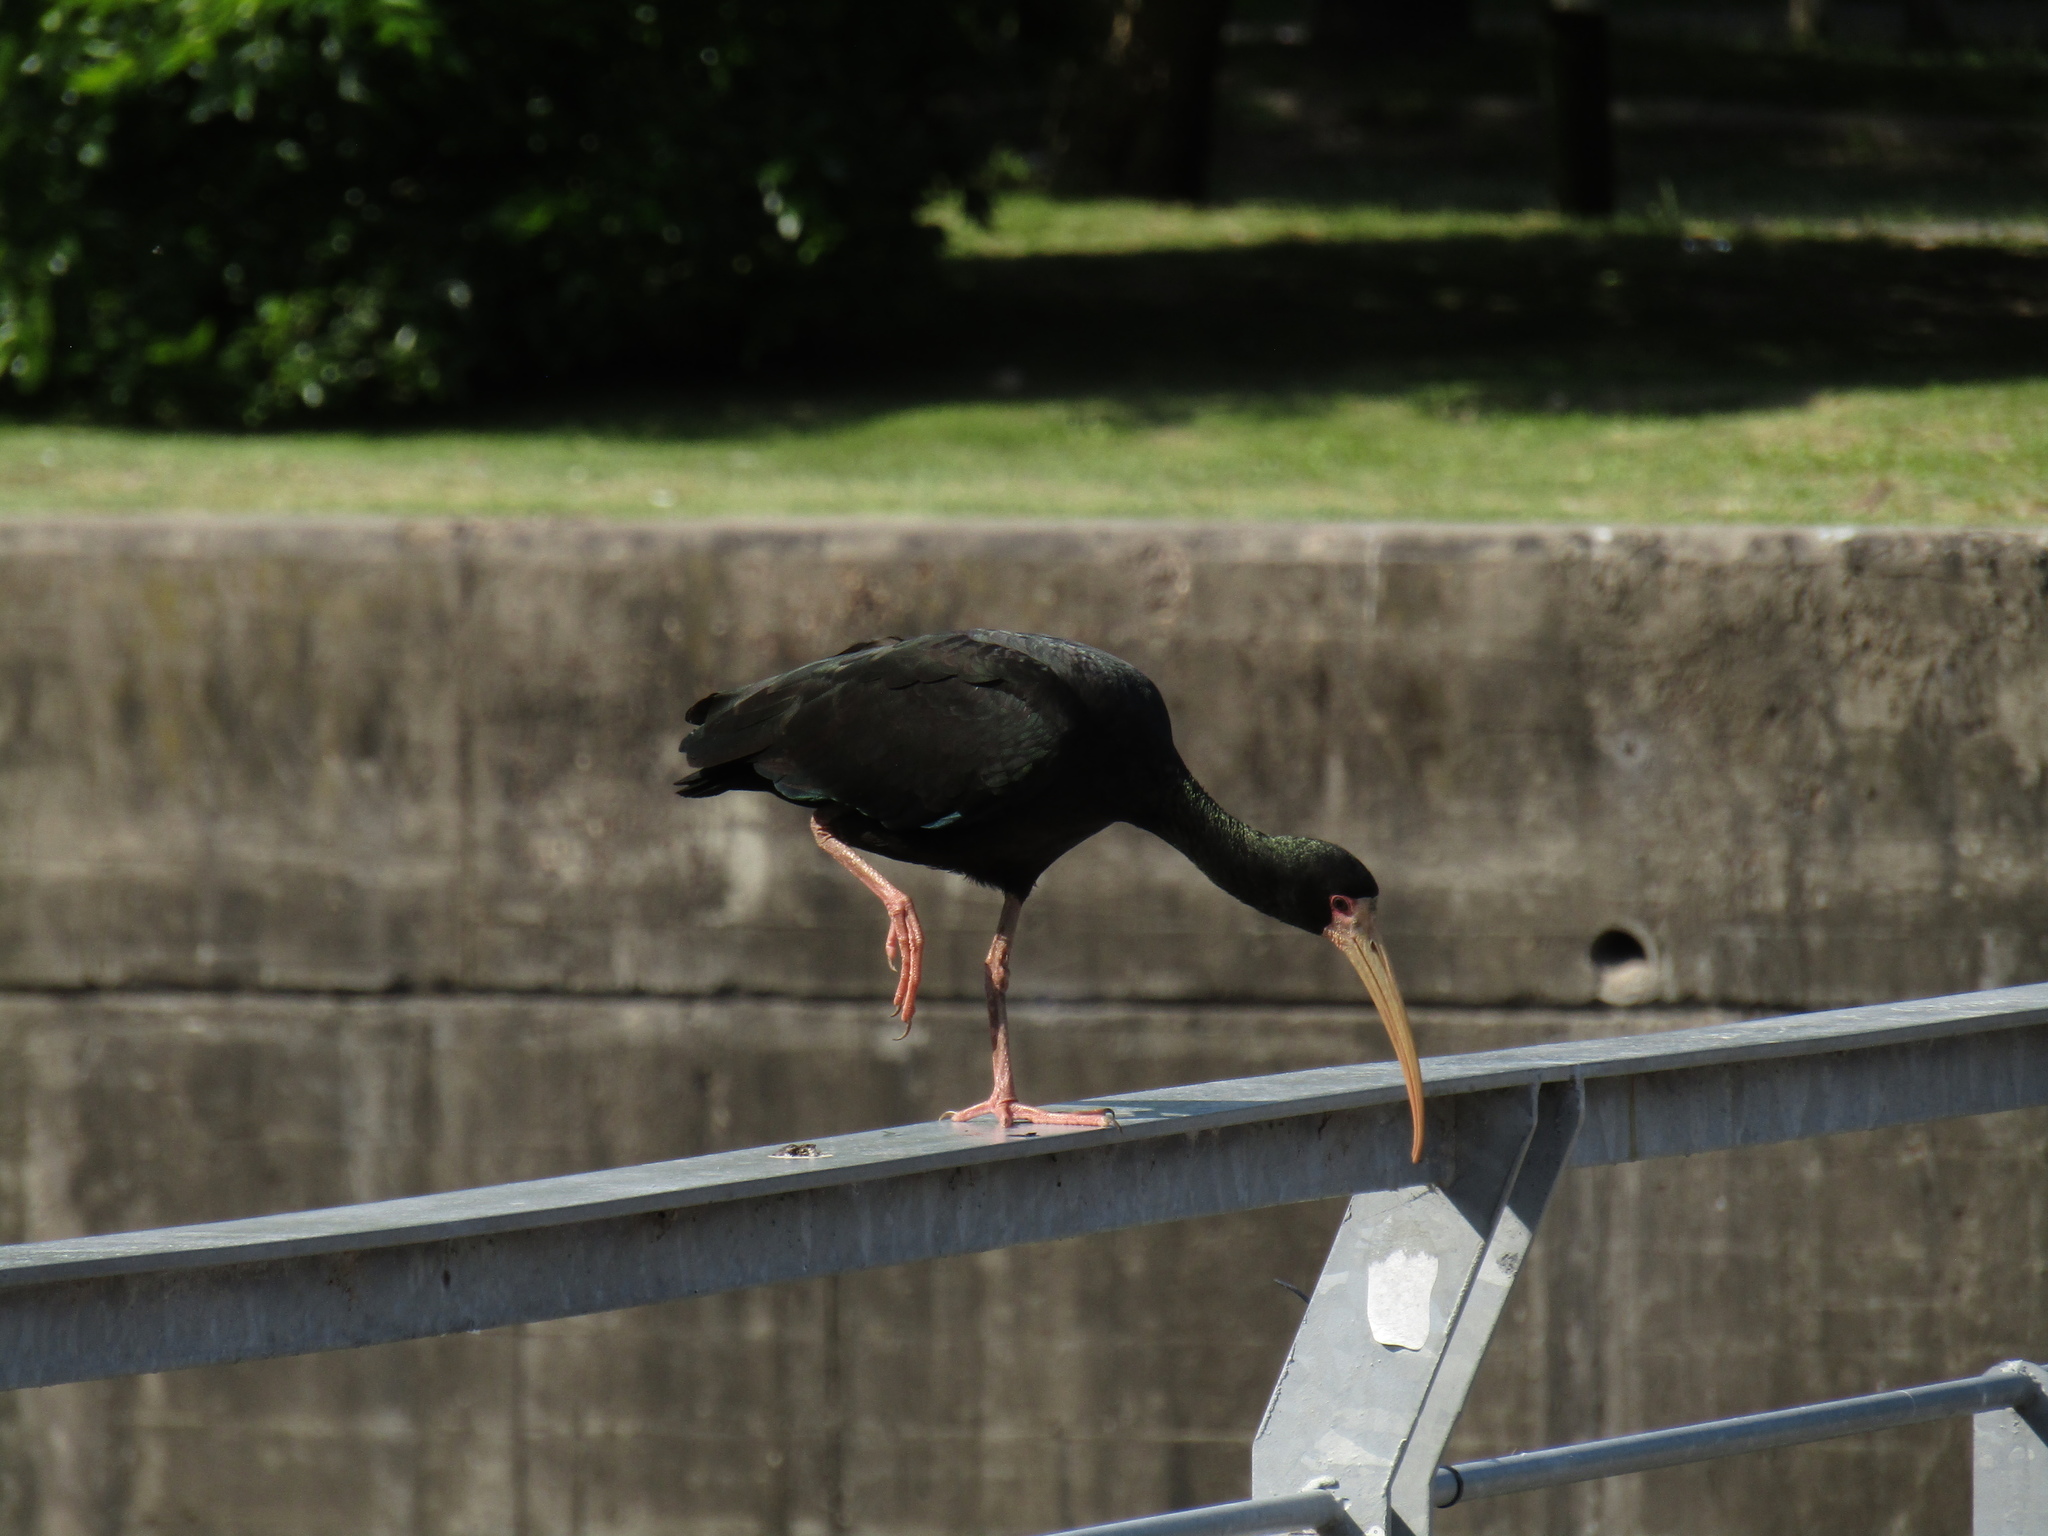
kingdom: Animalia
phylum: Chordata
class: Aves
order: Pelecaniformes
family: Threskiornithidae
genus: Phimosus
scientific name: Phimosus infuscatus
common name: Bare-faced ibis
